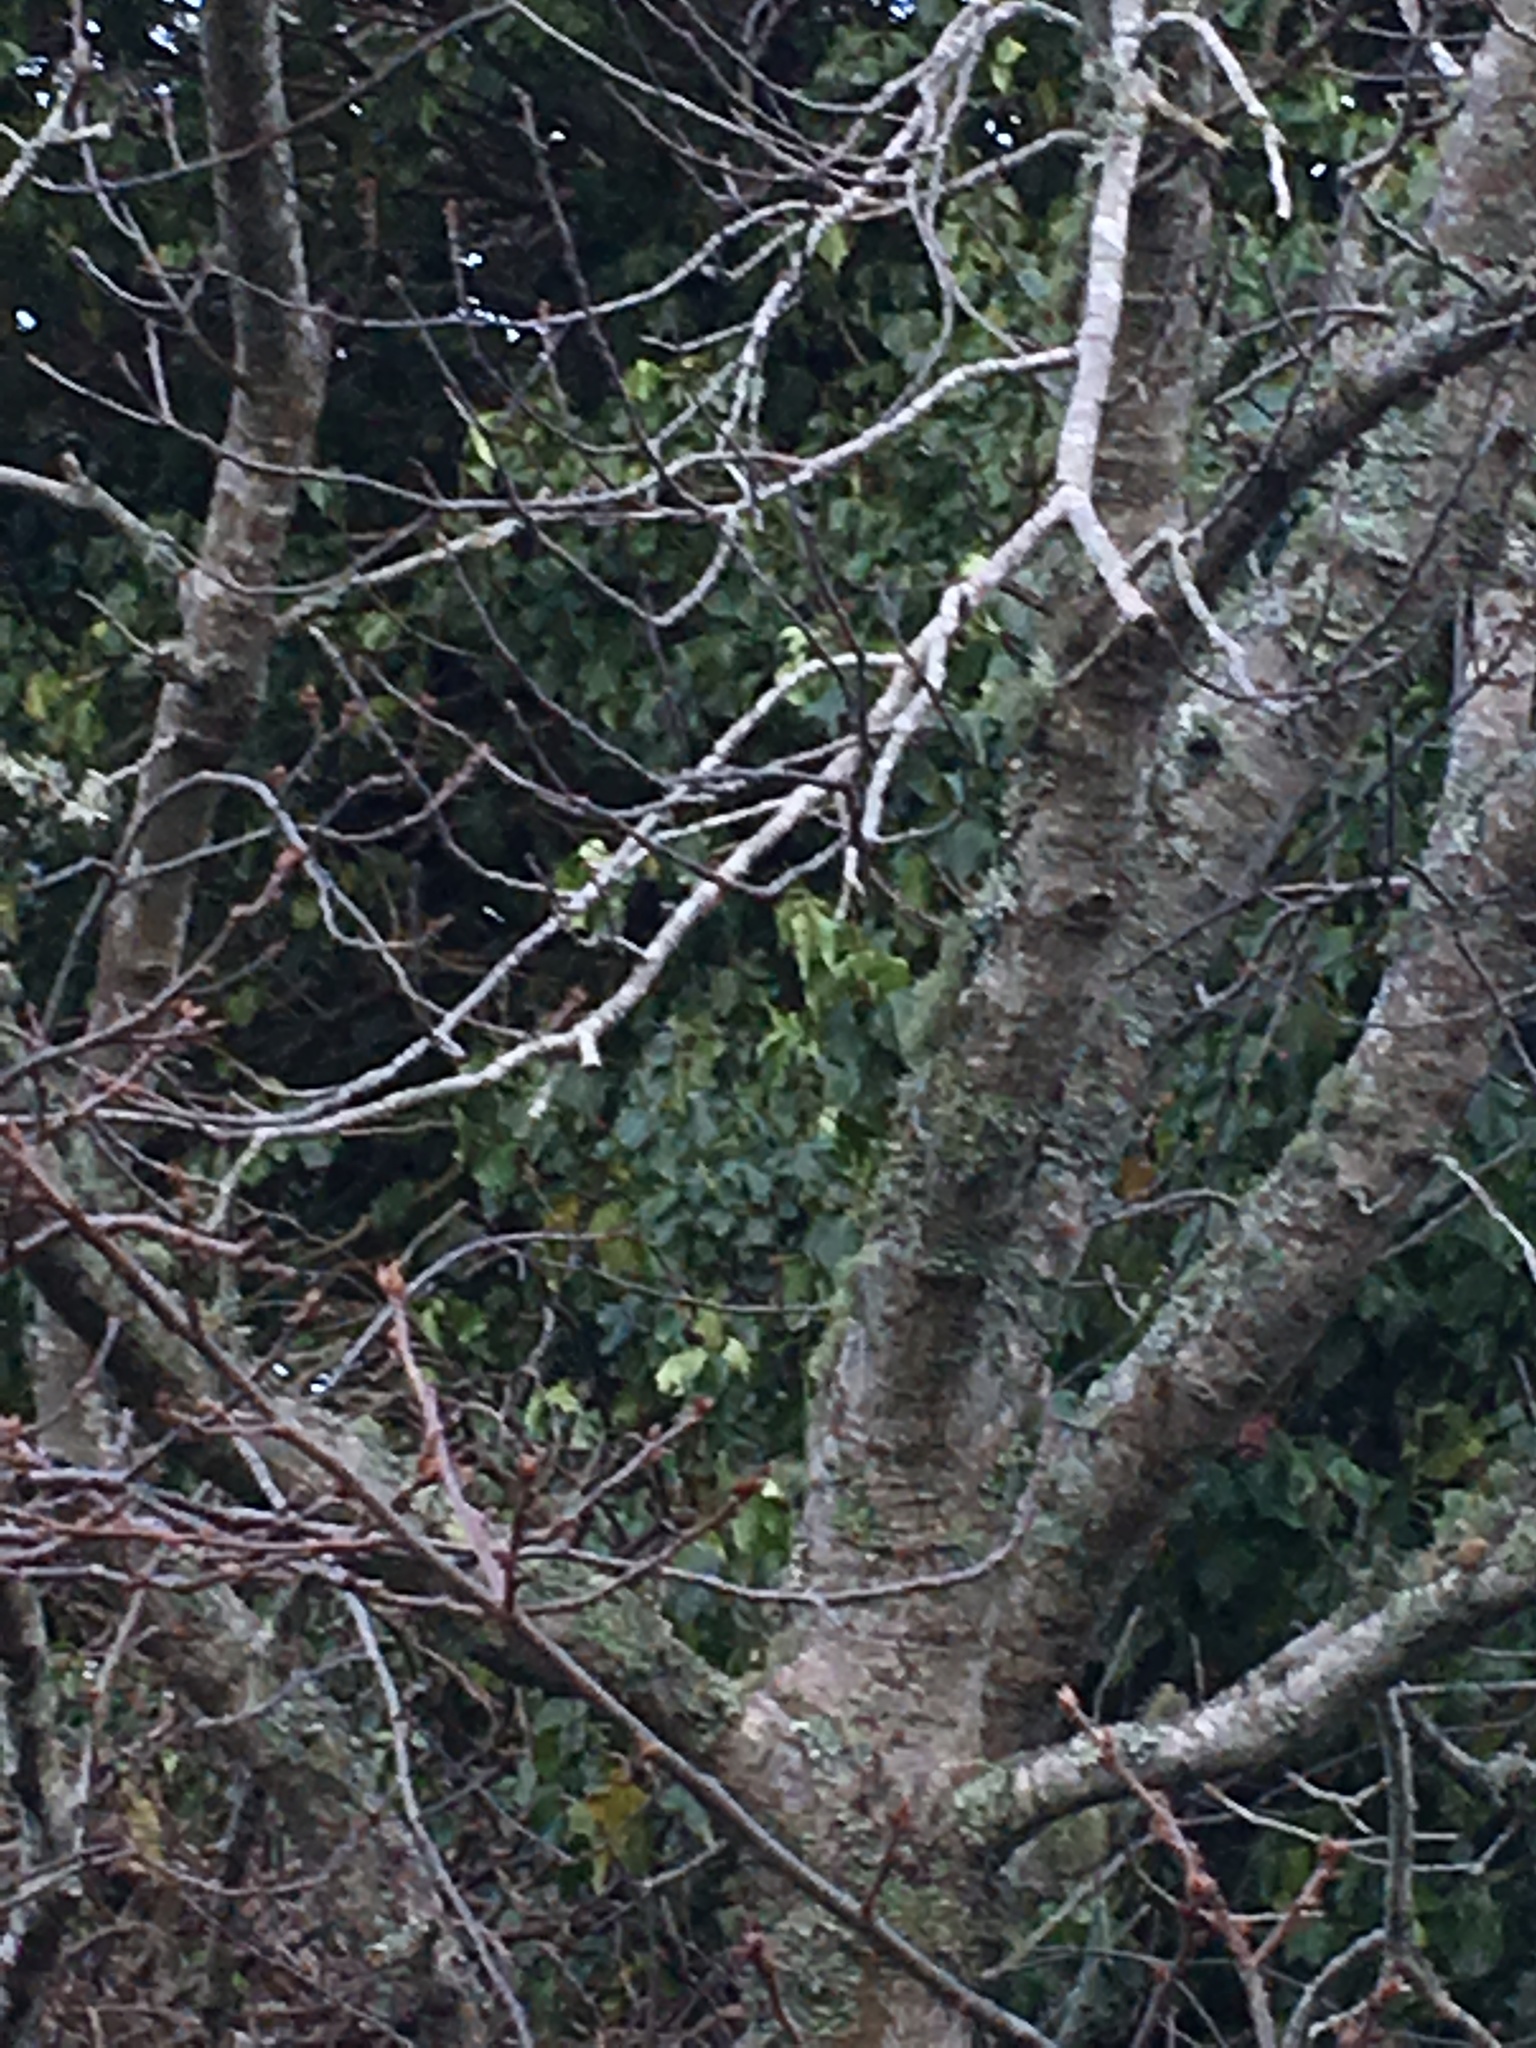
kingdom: Plantae
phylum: Tracheophyta
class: Magnoliopsida
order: Apiales
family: Araliaceae
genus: Hedera
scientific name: Hedera helix
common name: Ivy
